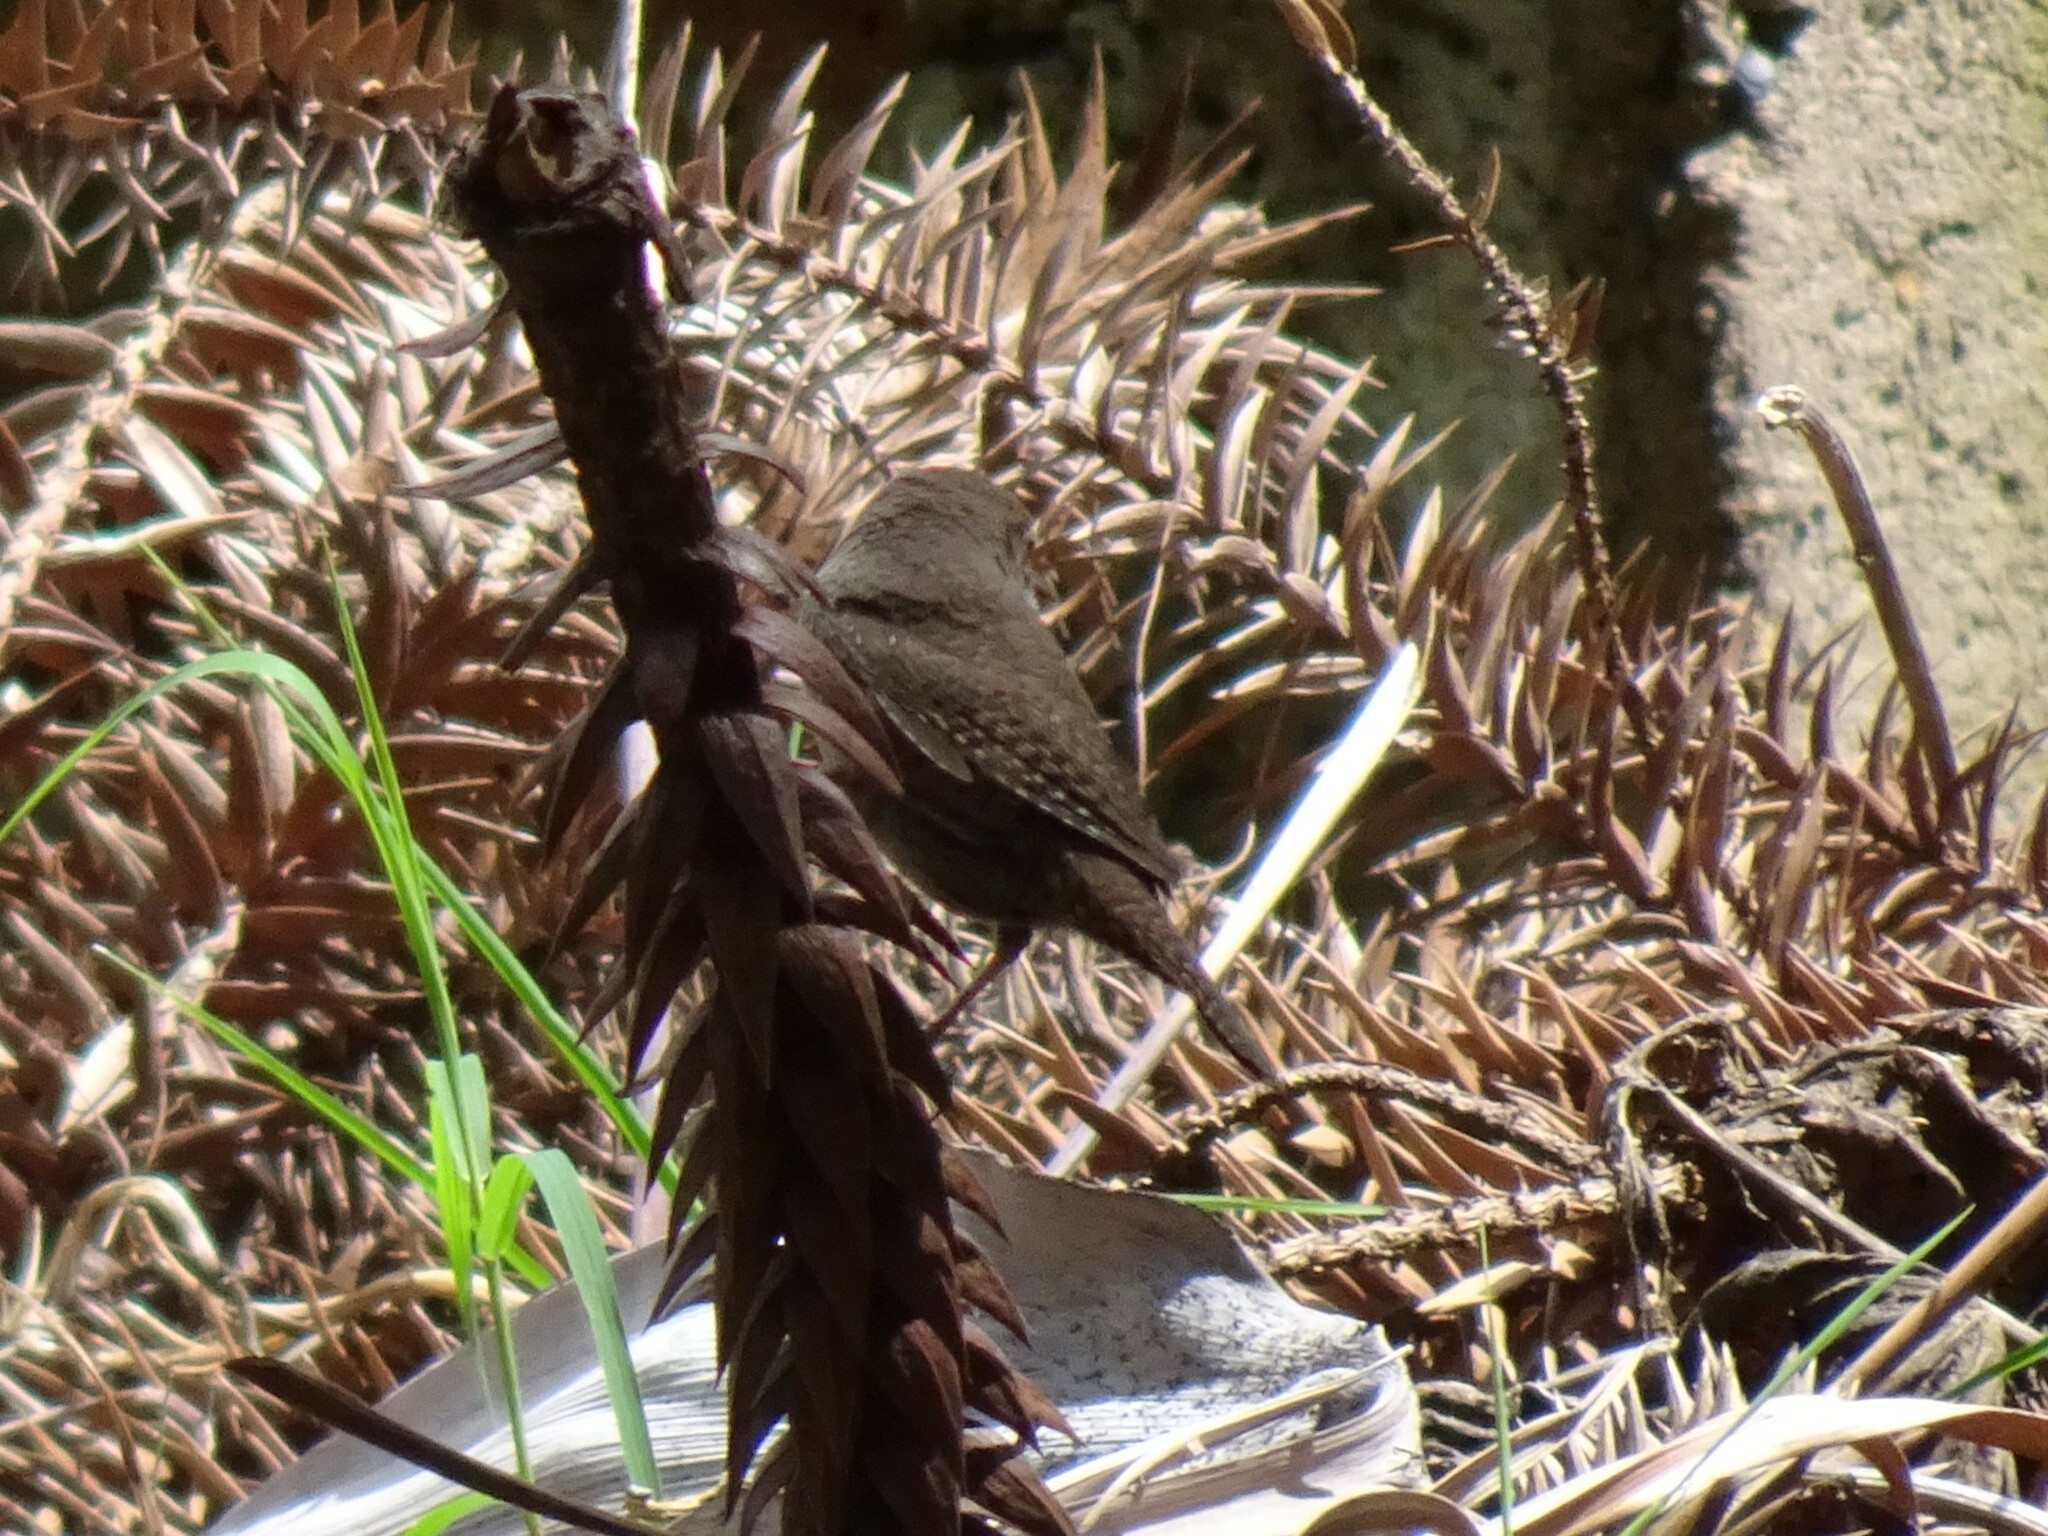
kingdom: Animalia
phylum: Chordata
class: Aves
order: Passeriformes
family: Troglodytidae
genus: Troglodytes
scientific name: Troglodytes aedon
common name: House wren
